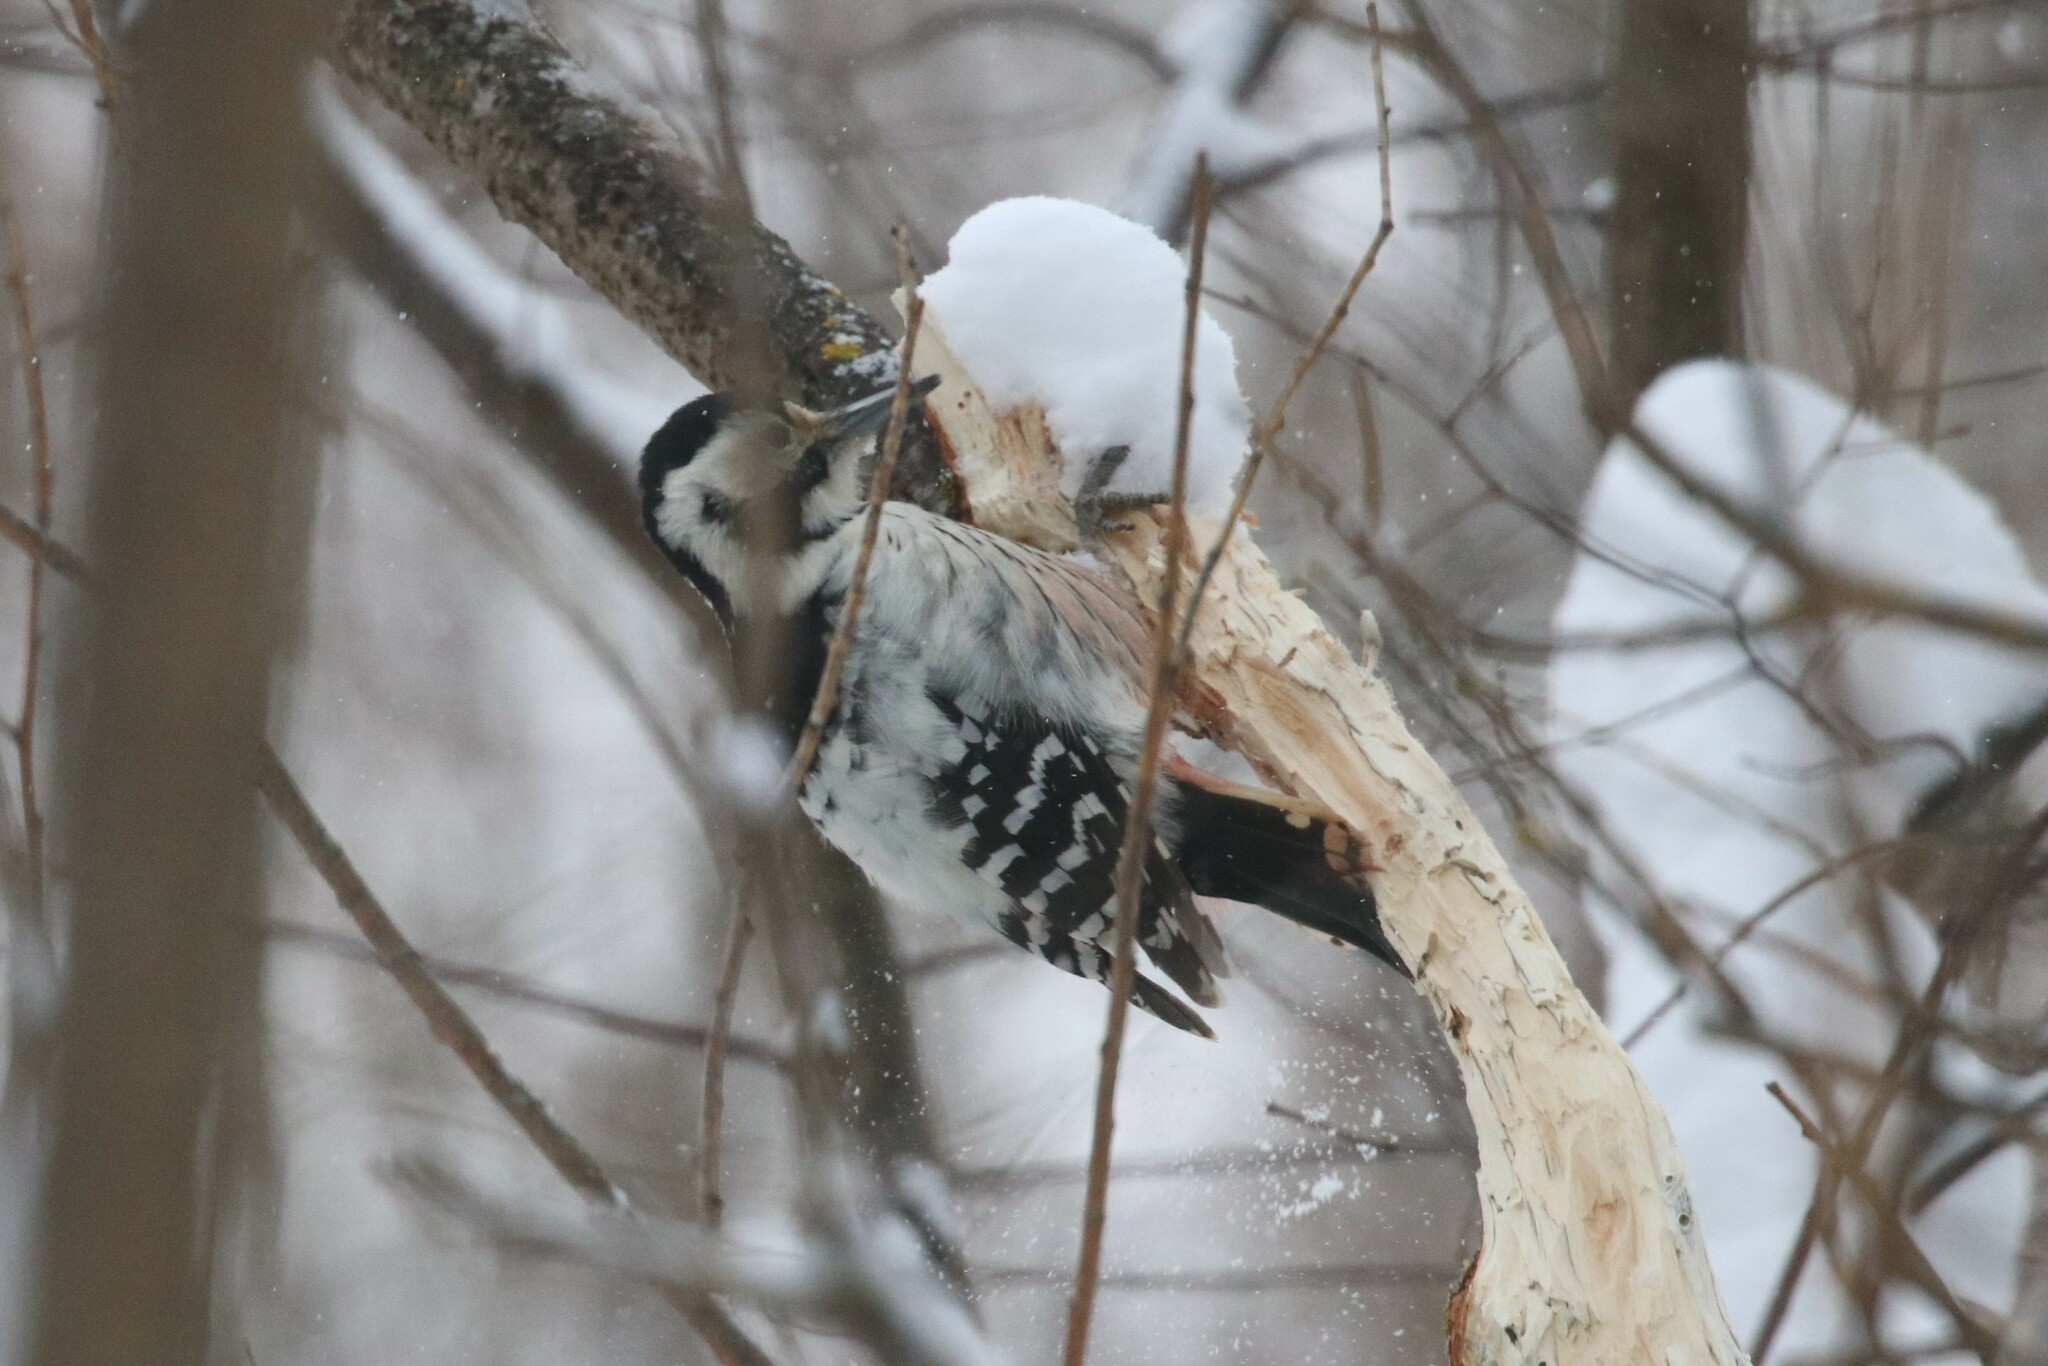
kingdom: Animalia
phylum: Chordata
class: Aves
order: Piciformes
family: Picidae
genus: Dendrocopos
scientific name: Dendrocopos leucotos
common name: White-backed woodpecker
